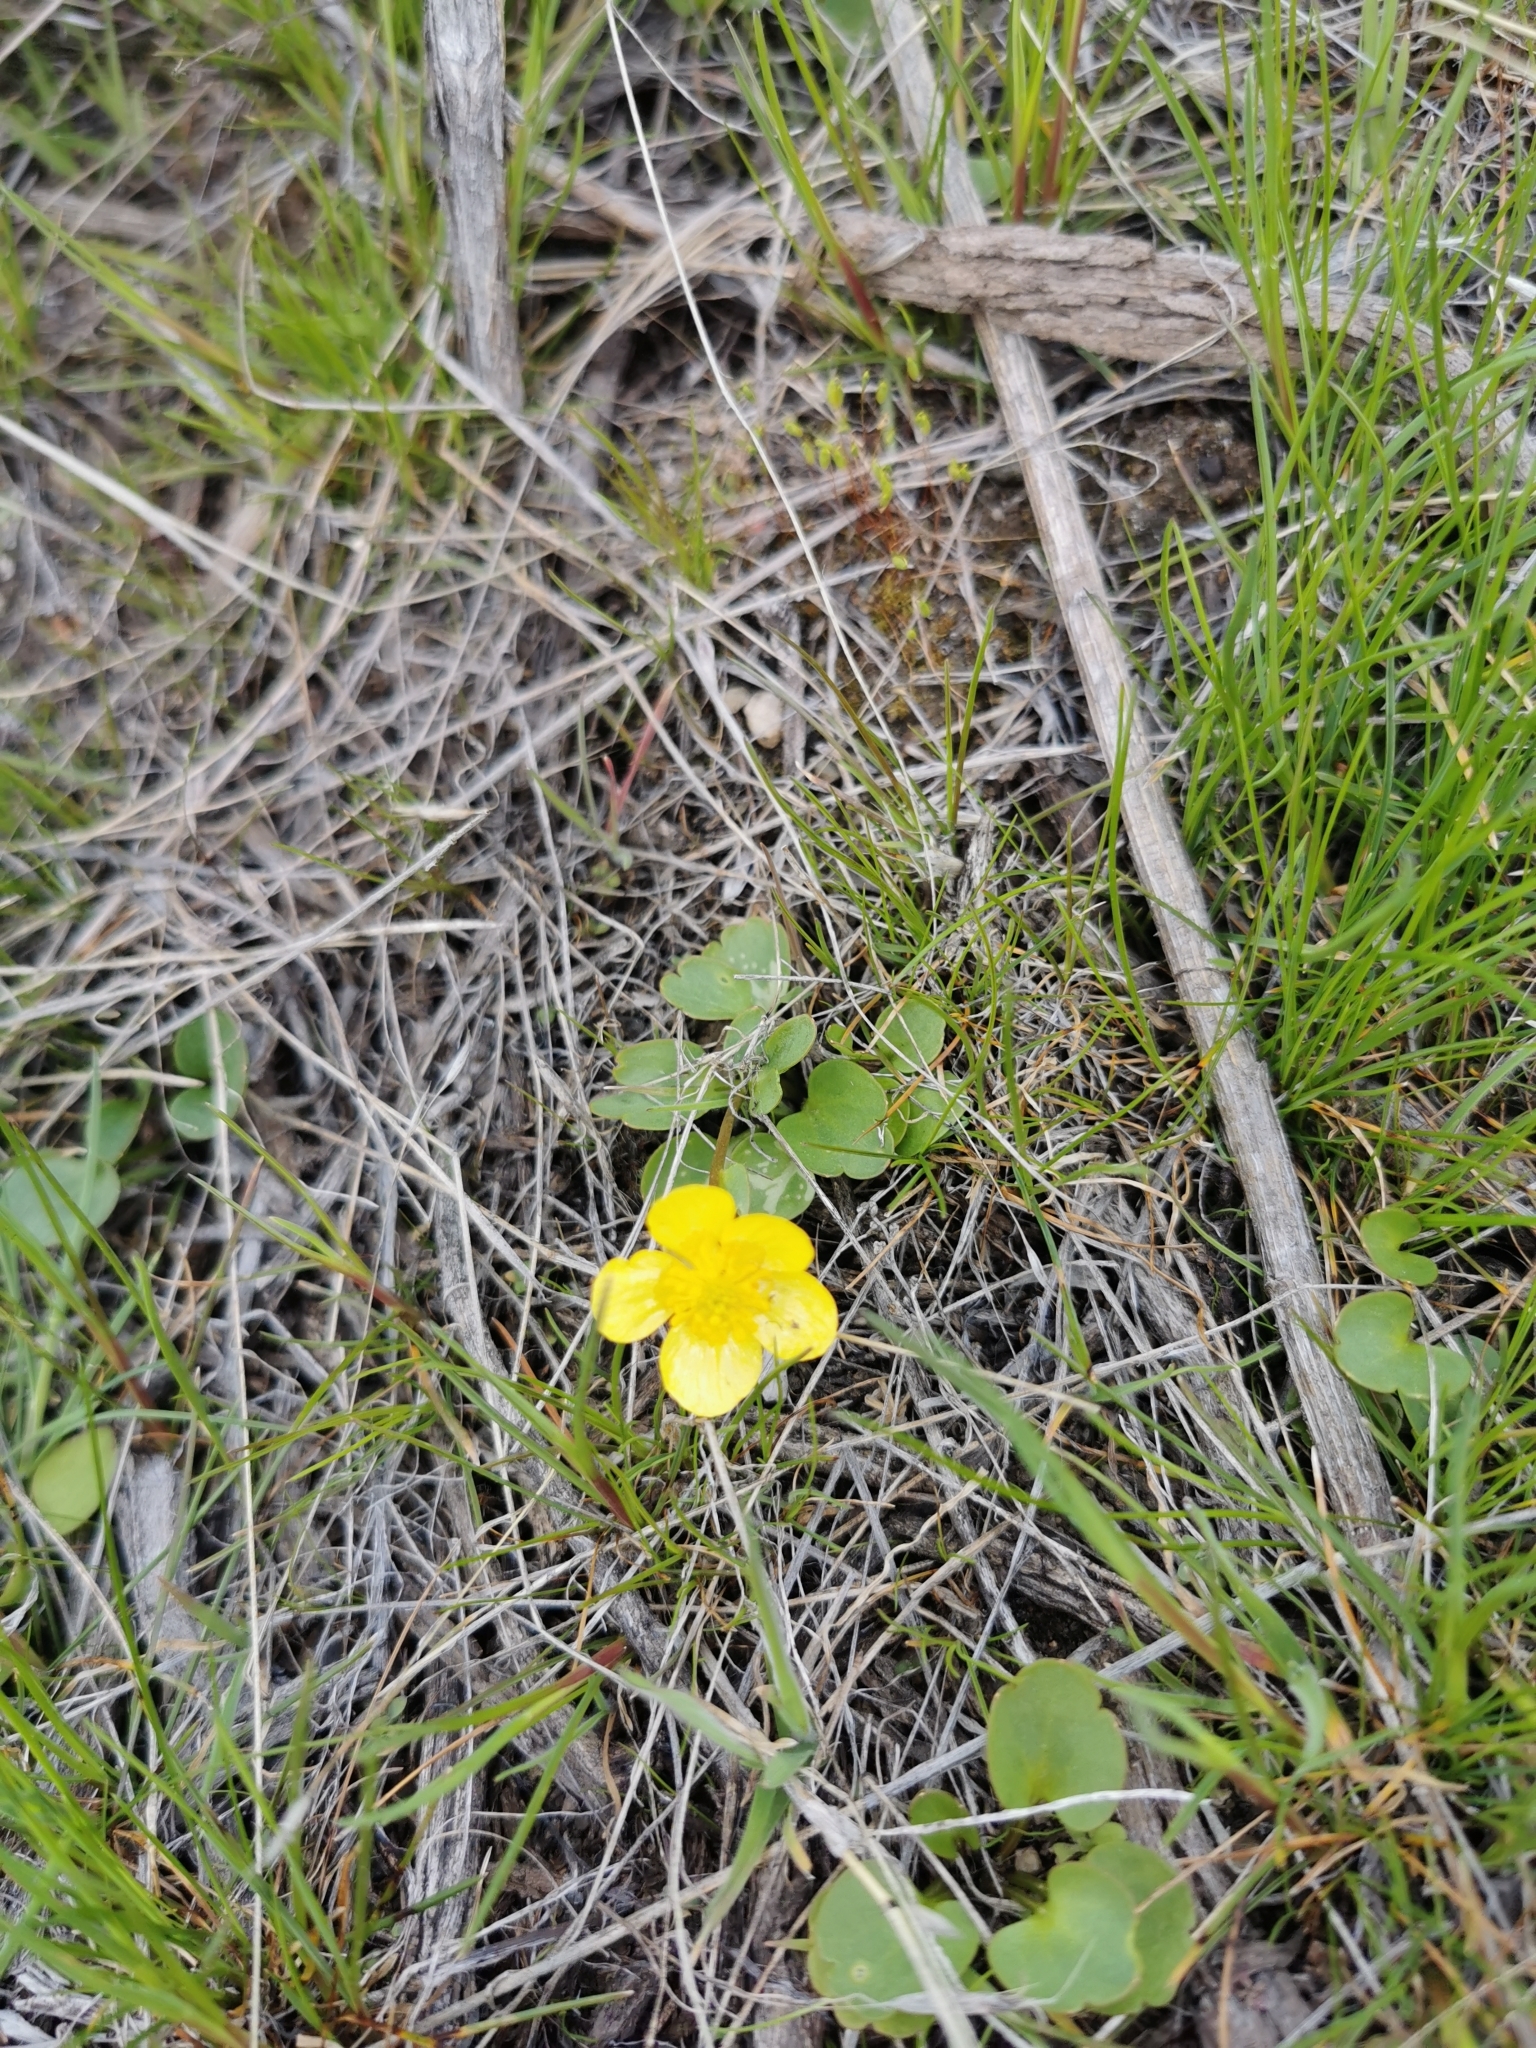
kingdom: Plantae
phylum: Tracheophyta
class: Magnoliopsida
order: Ranunculales
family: Ranunculaceae
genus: Ranunculus
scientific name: Ranunculus glaberrimus
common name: Sagebrush buttercup
